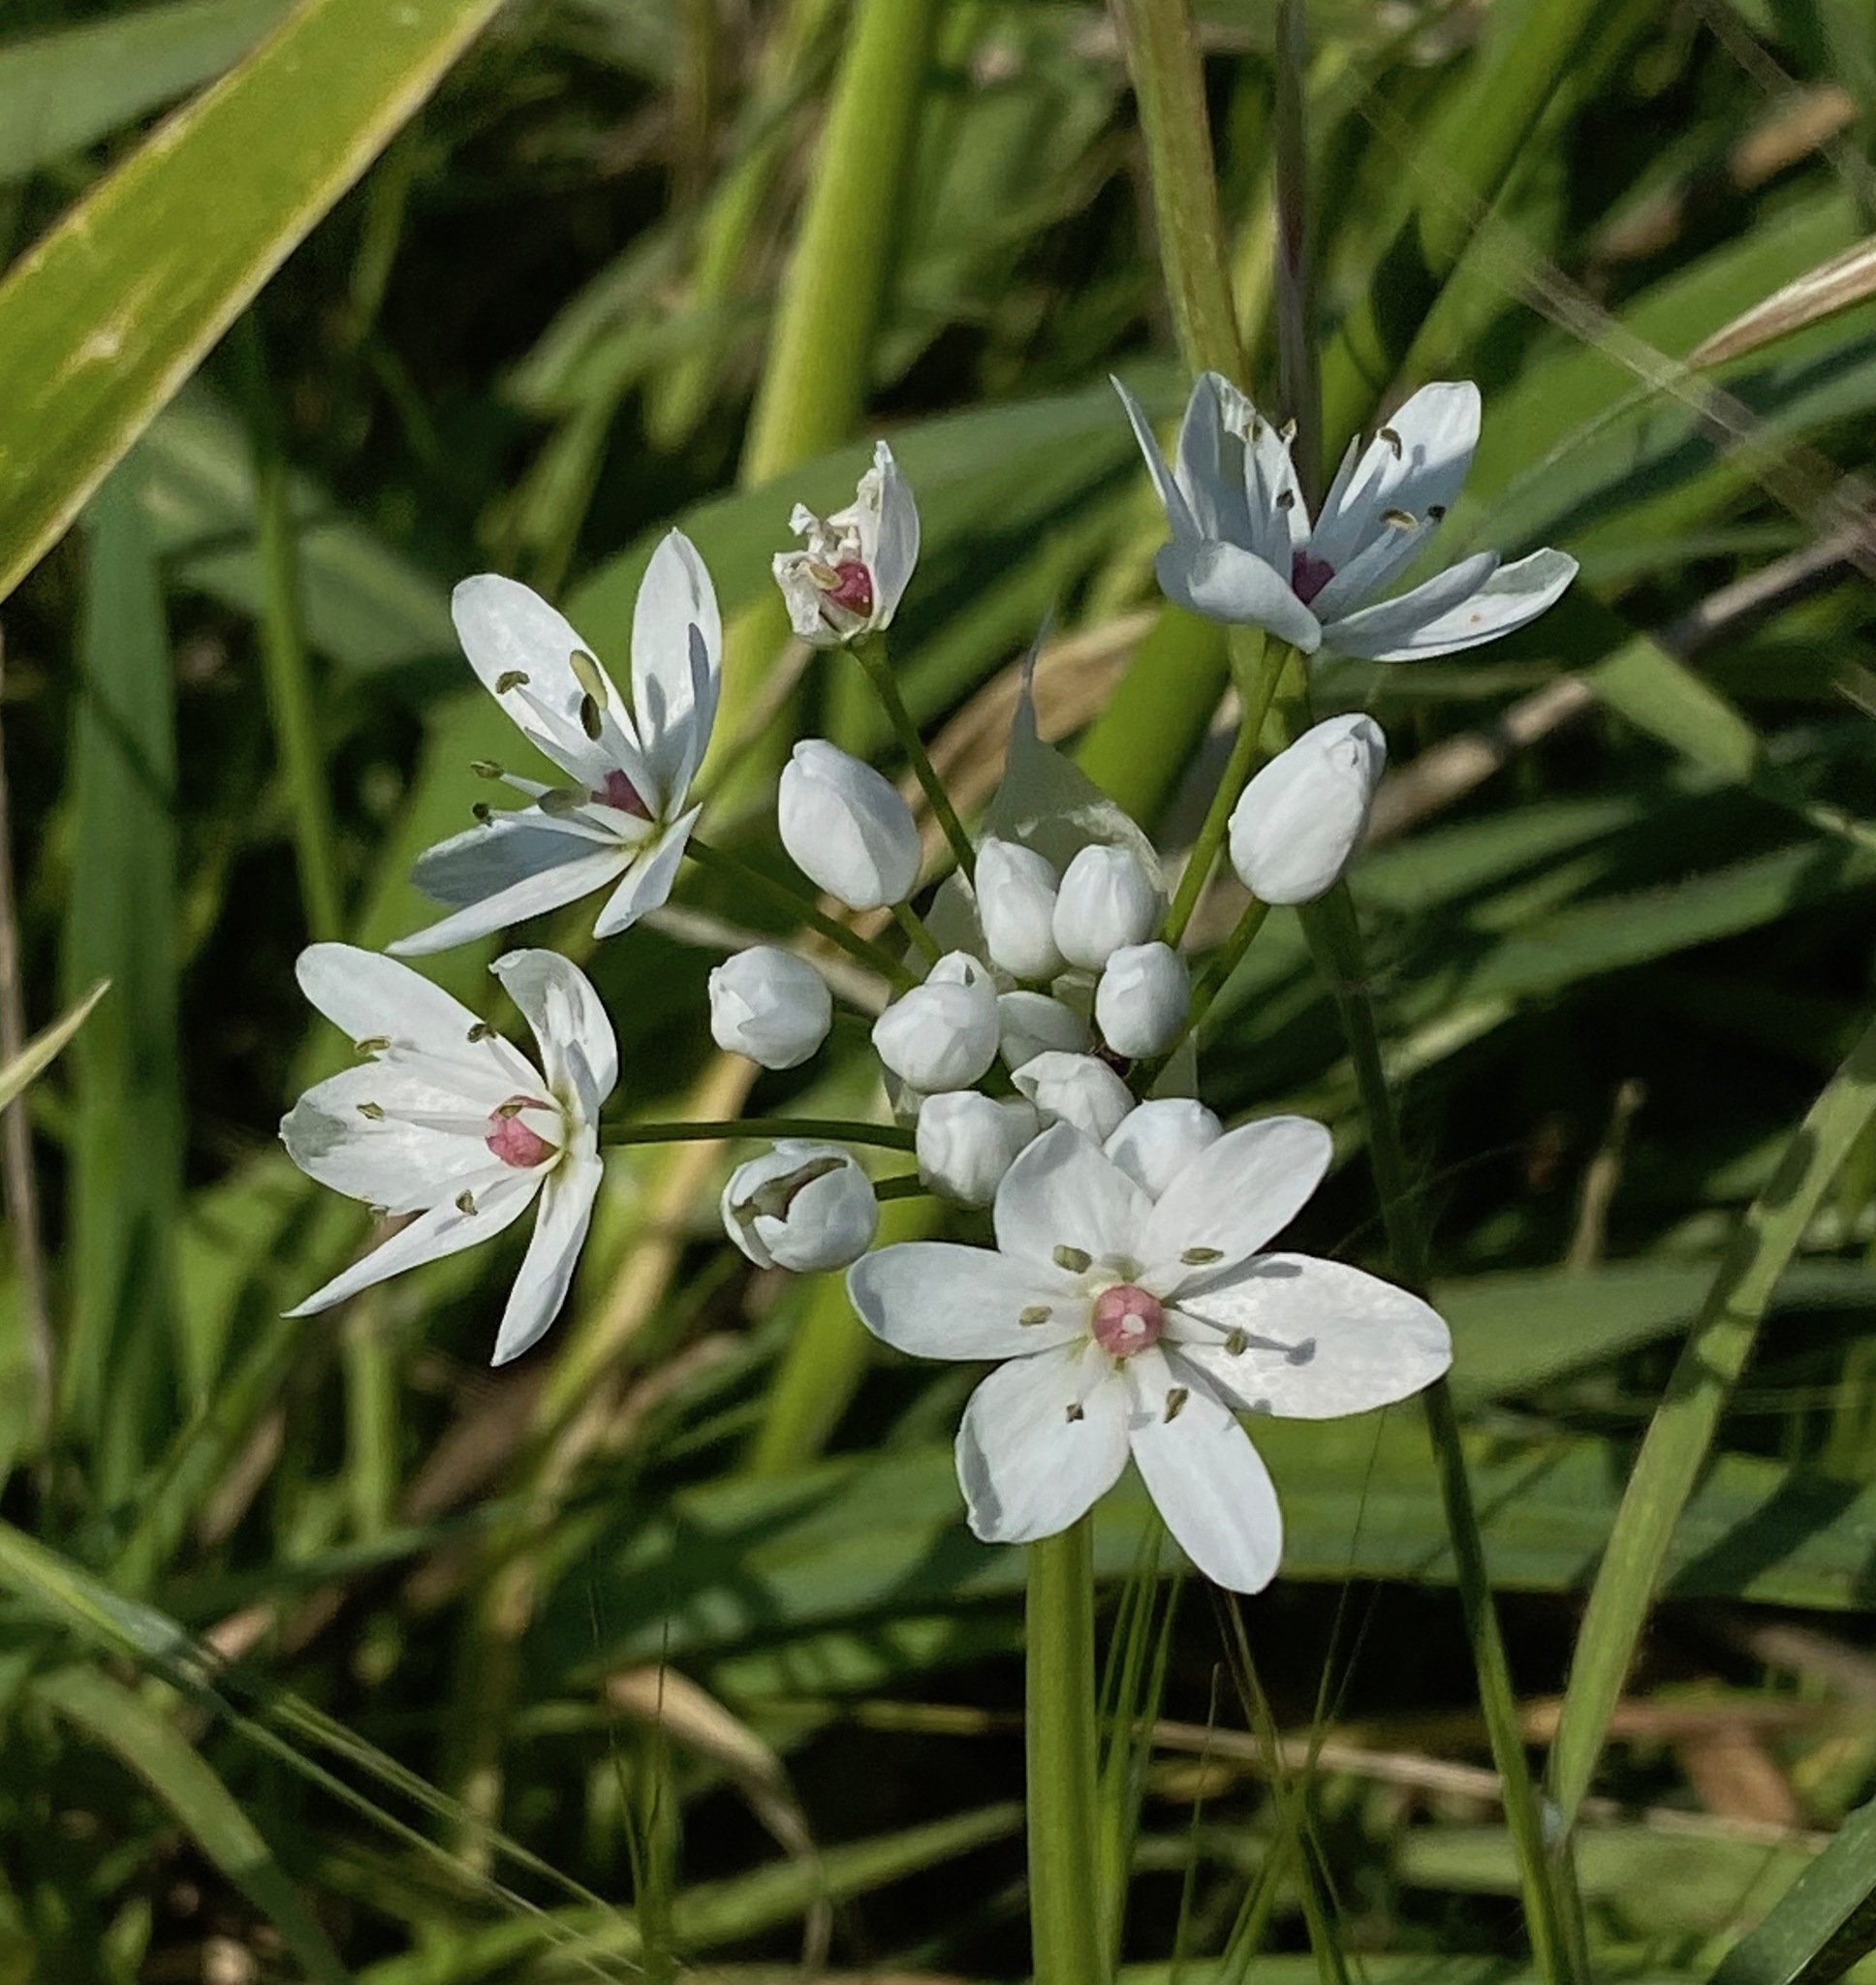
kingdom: Plantae
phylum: Tracheophyta
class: Liliopsida
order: Asparagales
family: Amaryllidaceae
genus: Allium
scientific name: Allium neapolitanum
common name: Neapolitan garlic
